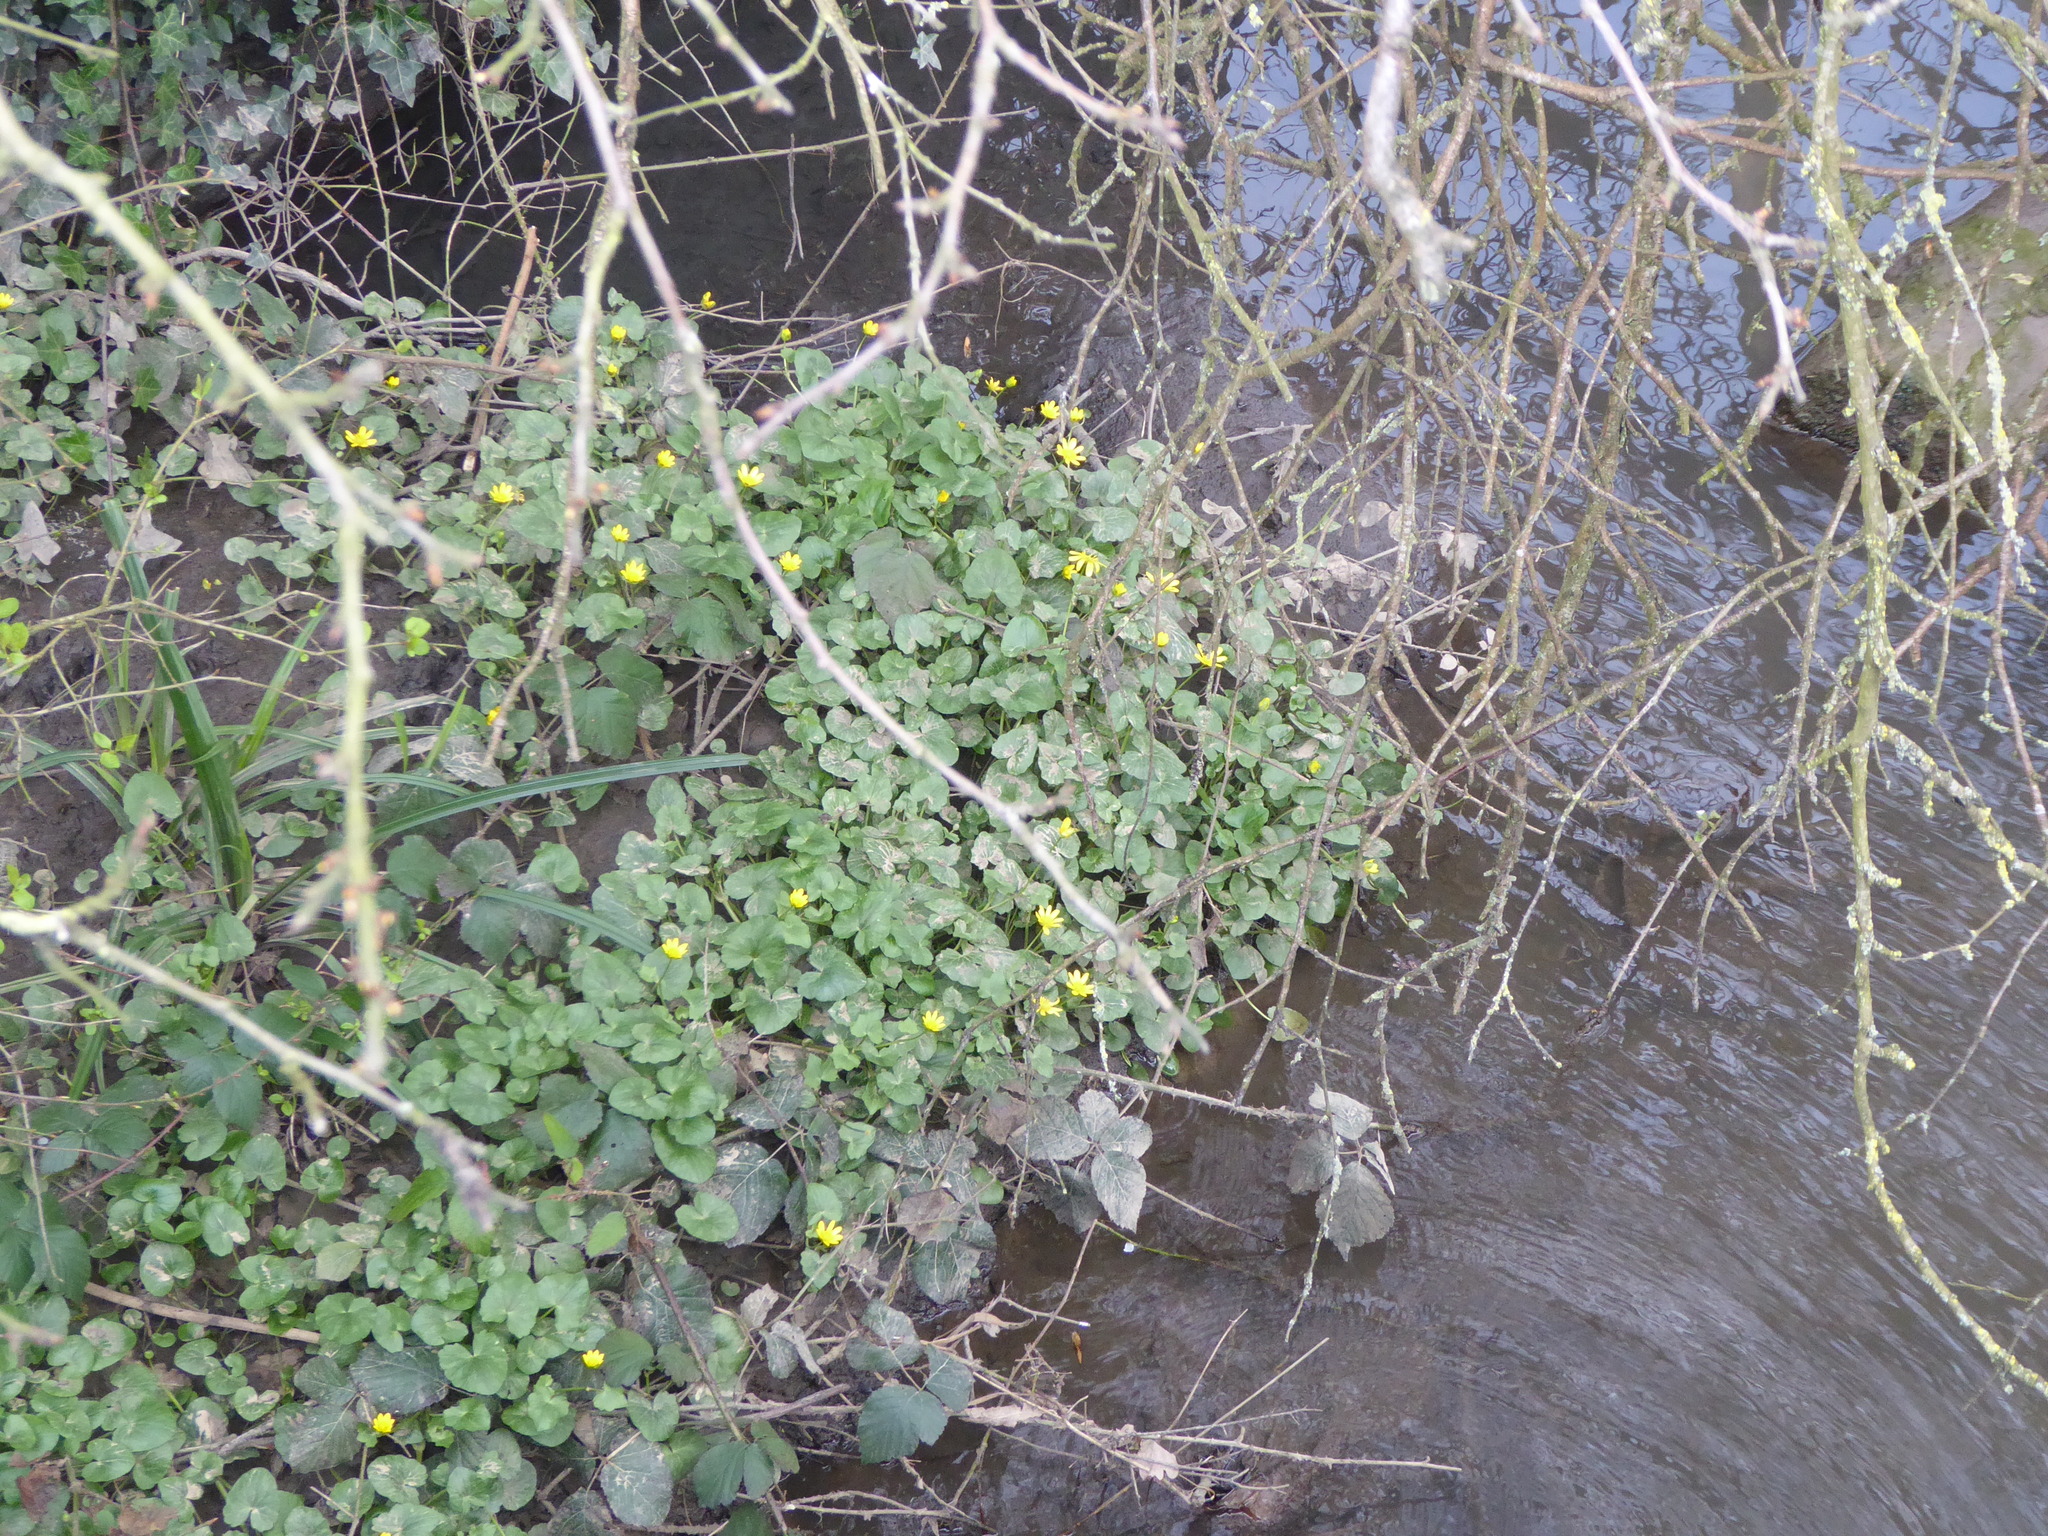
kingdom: Plantae
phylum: Tracheophyta
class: Magnoliopsida
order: Ranunculales
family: Ranunculaceae
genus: Ficaria
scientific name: Ficaria verna
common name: Lesser celandine
